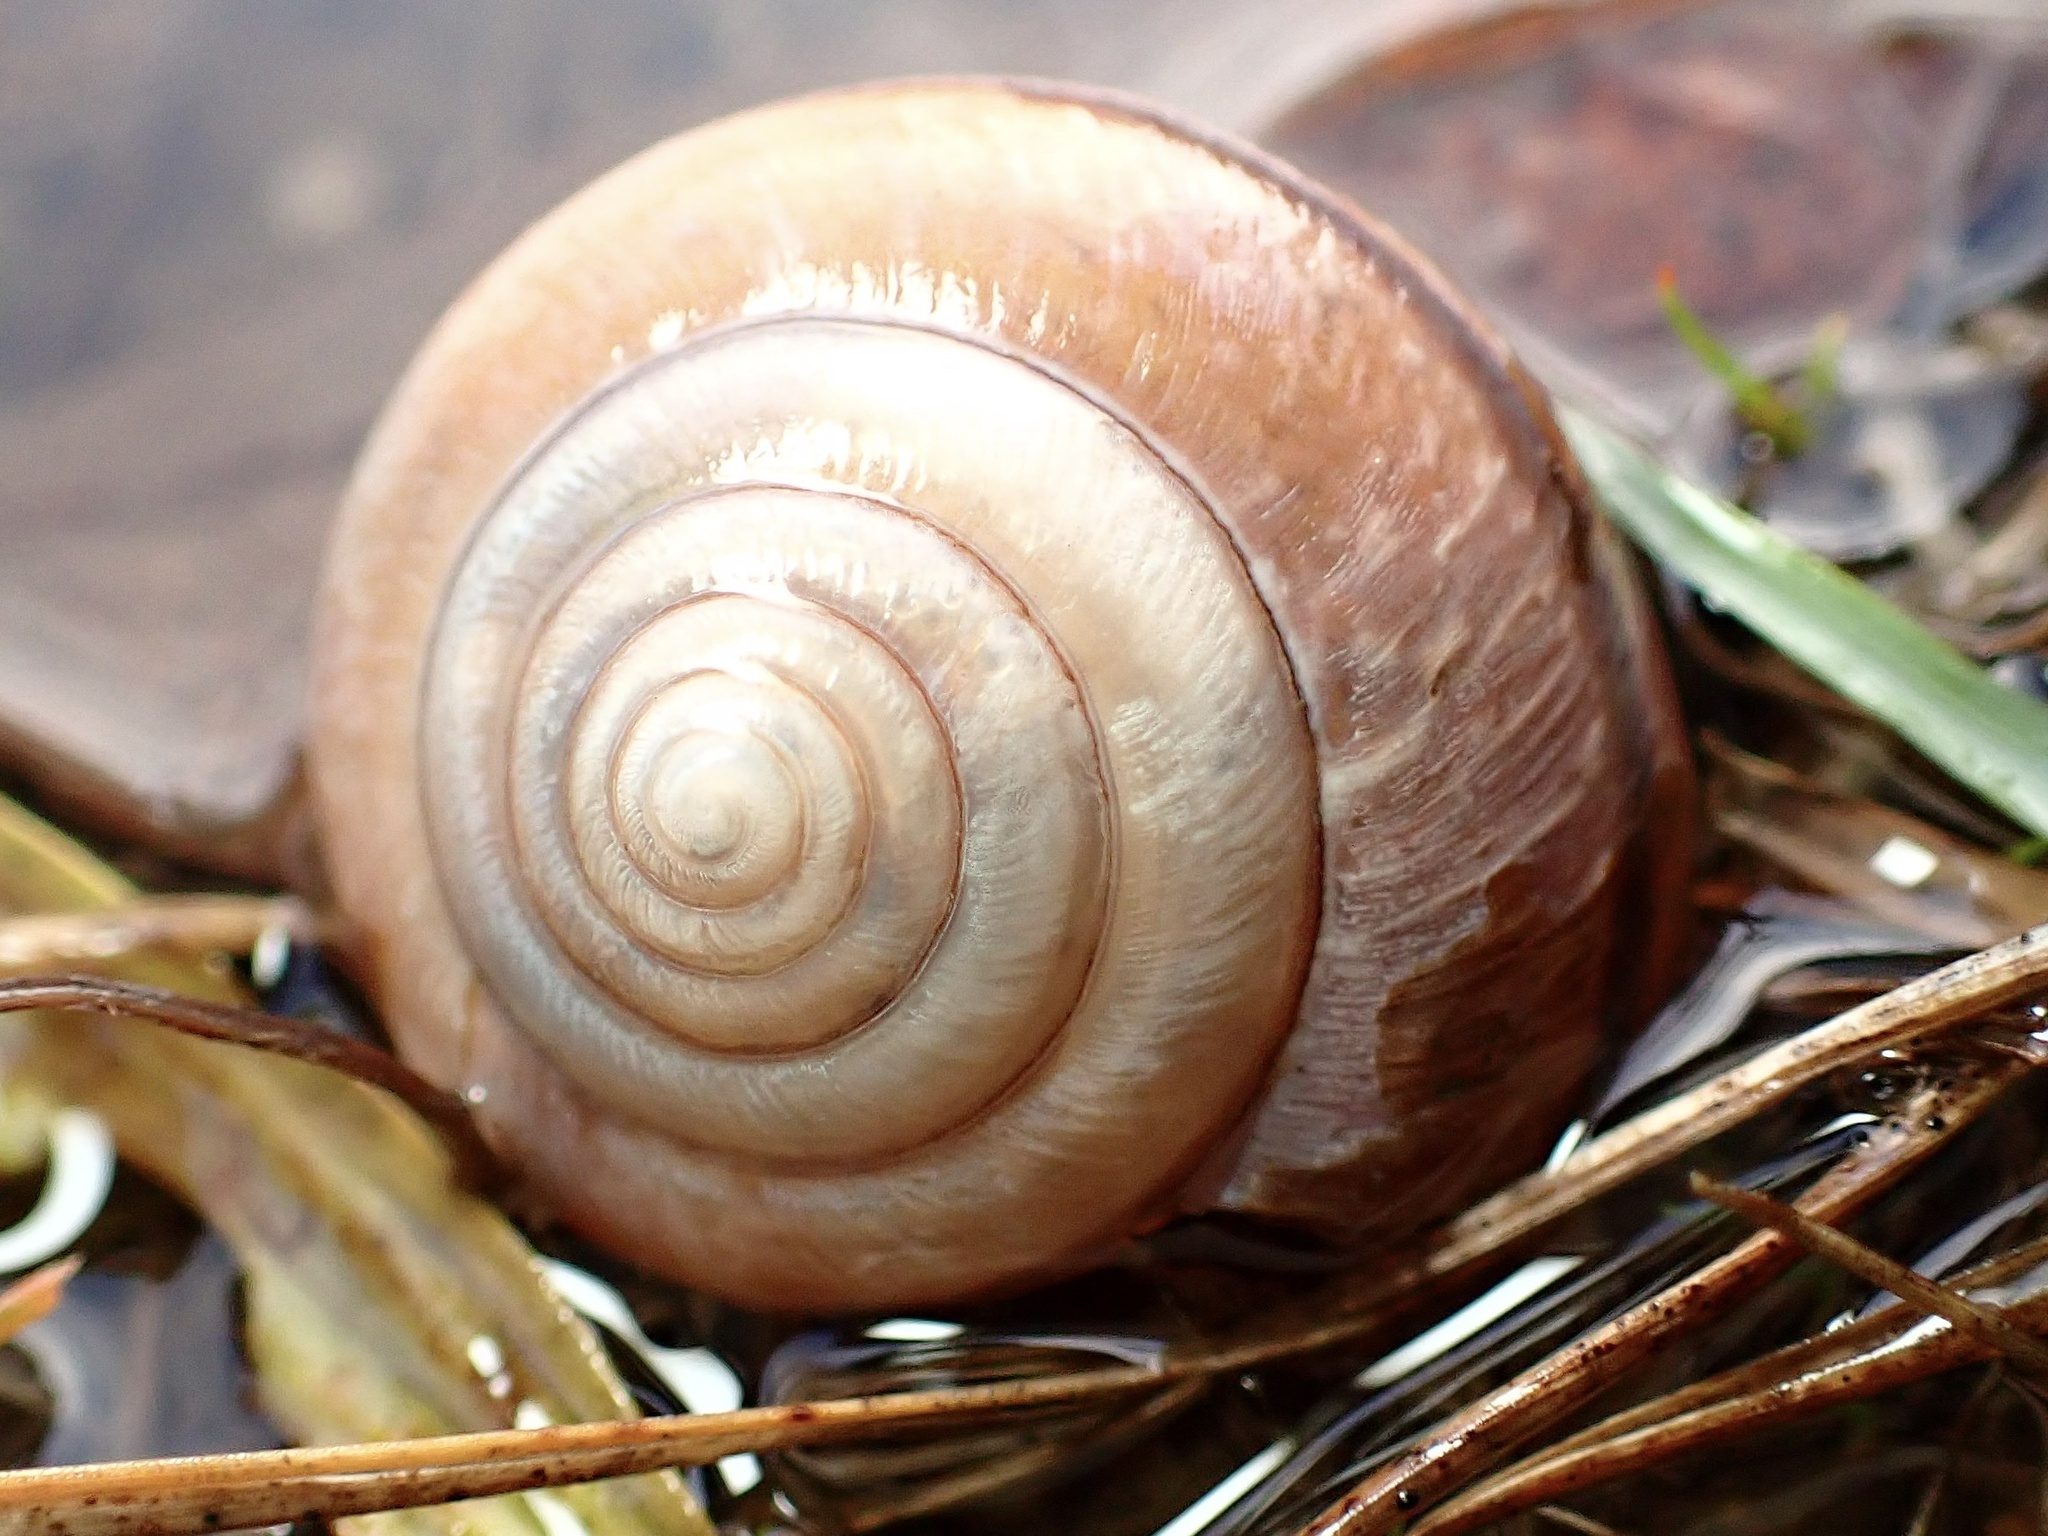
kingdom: Animalia
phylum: Mollusca
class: Gastropoda
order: Stylommatophora
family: Xanthonychidae
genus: Helminthoglypta
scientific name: Helminthoglypta arrosa
